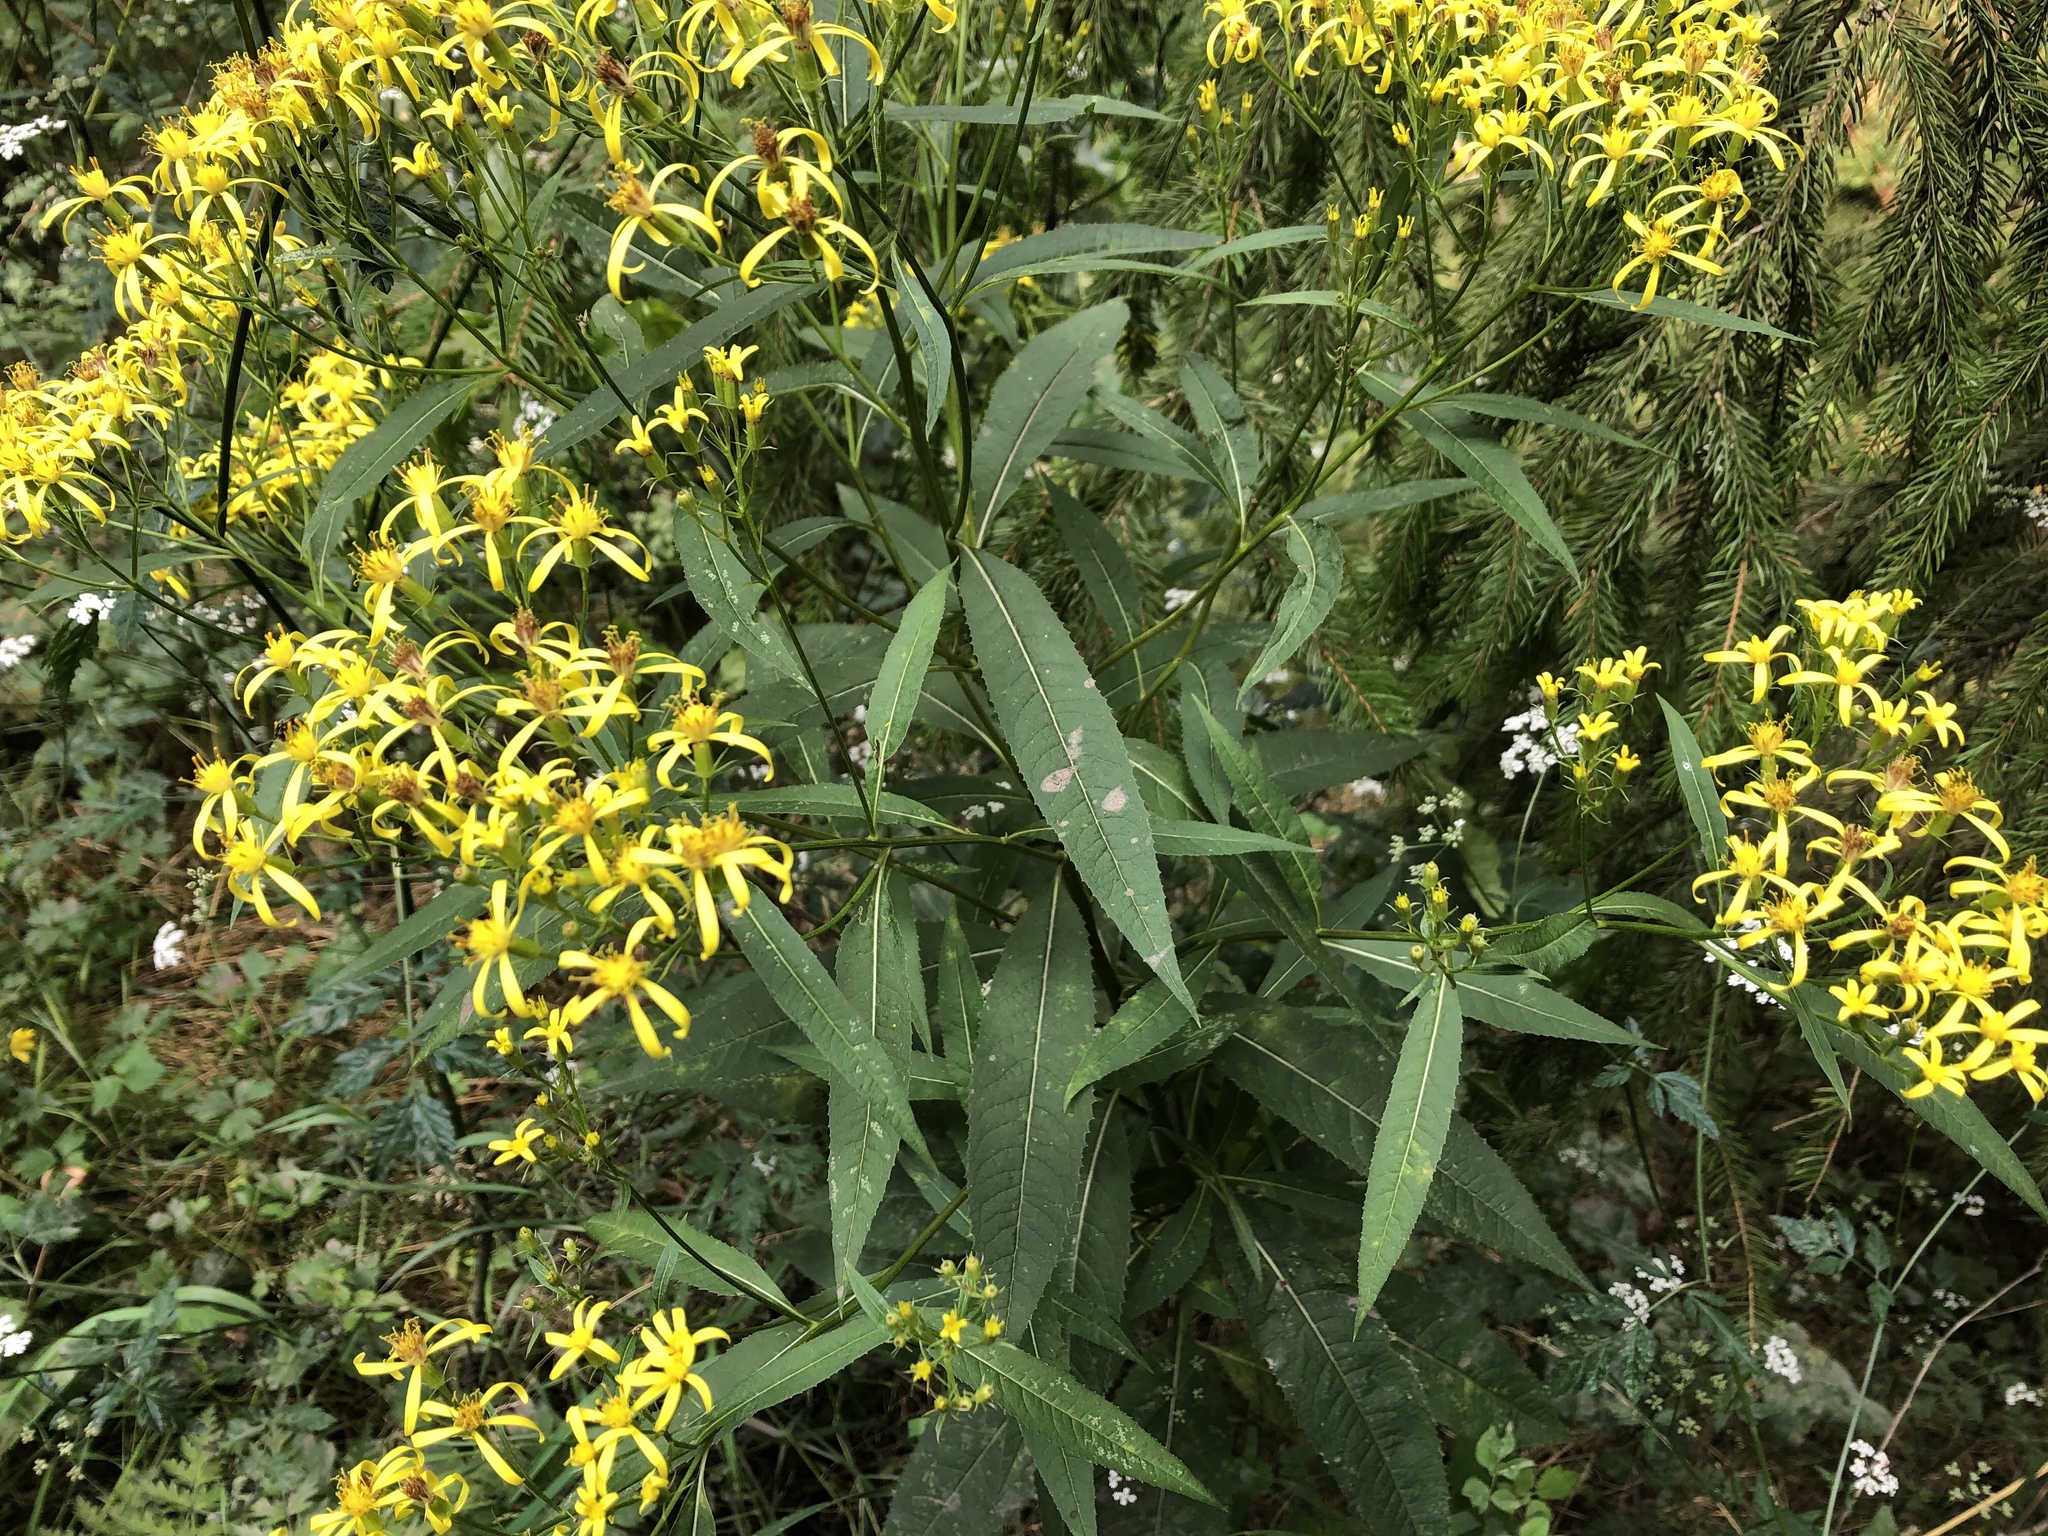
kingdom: Plantae
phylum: Tracheophyta
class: Magnoliopsida
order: Asterales
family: Asteraceae
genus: Senecio
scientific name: Senecio ovatus
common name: Wood ragwort
